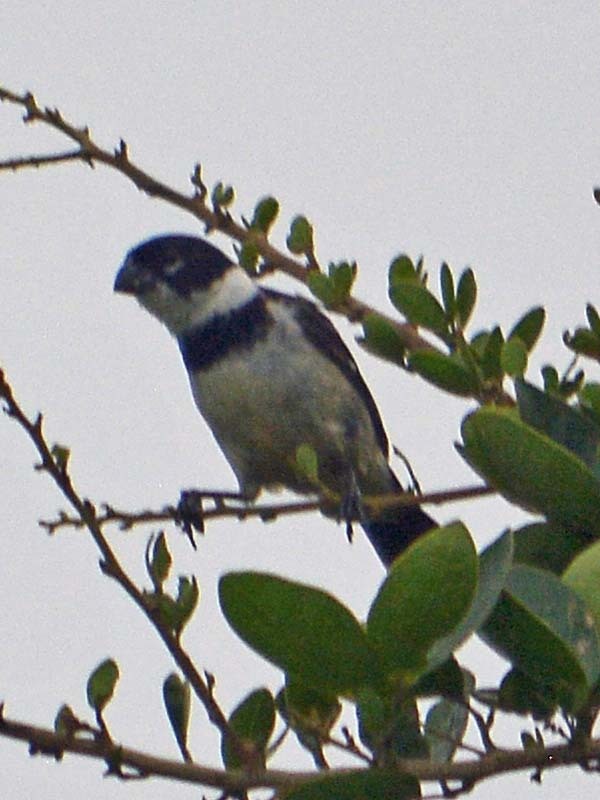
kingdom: Animalia
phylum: Chordata
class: Aves
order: Passeriformes
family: Thraupidae
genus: Sporophila
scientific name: Sporophila morelleti
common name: Morelet's seedeater
